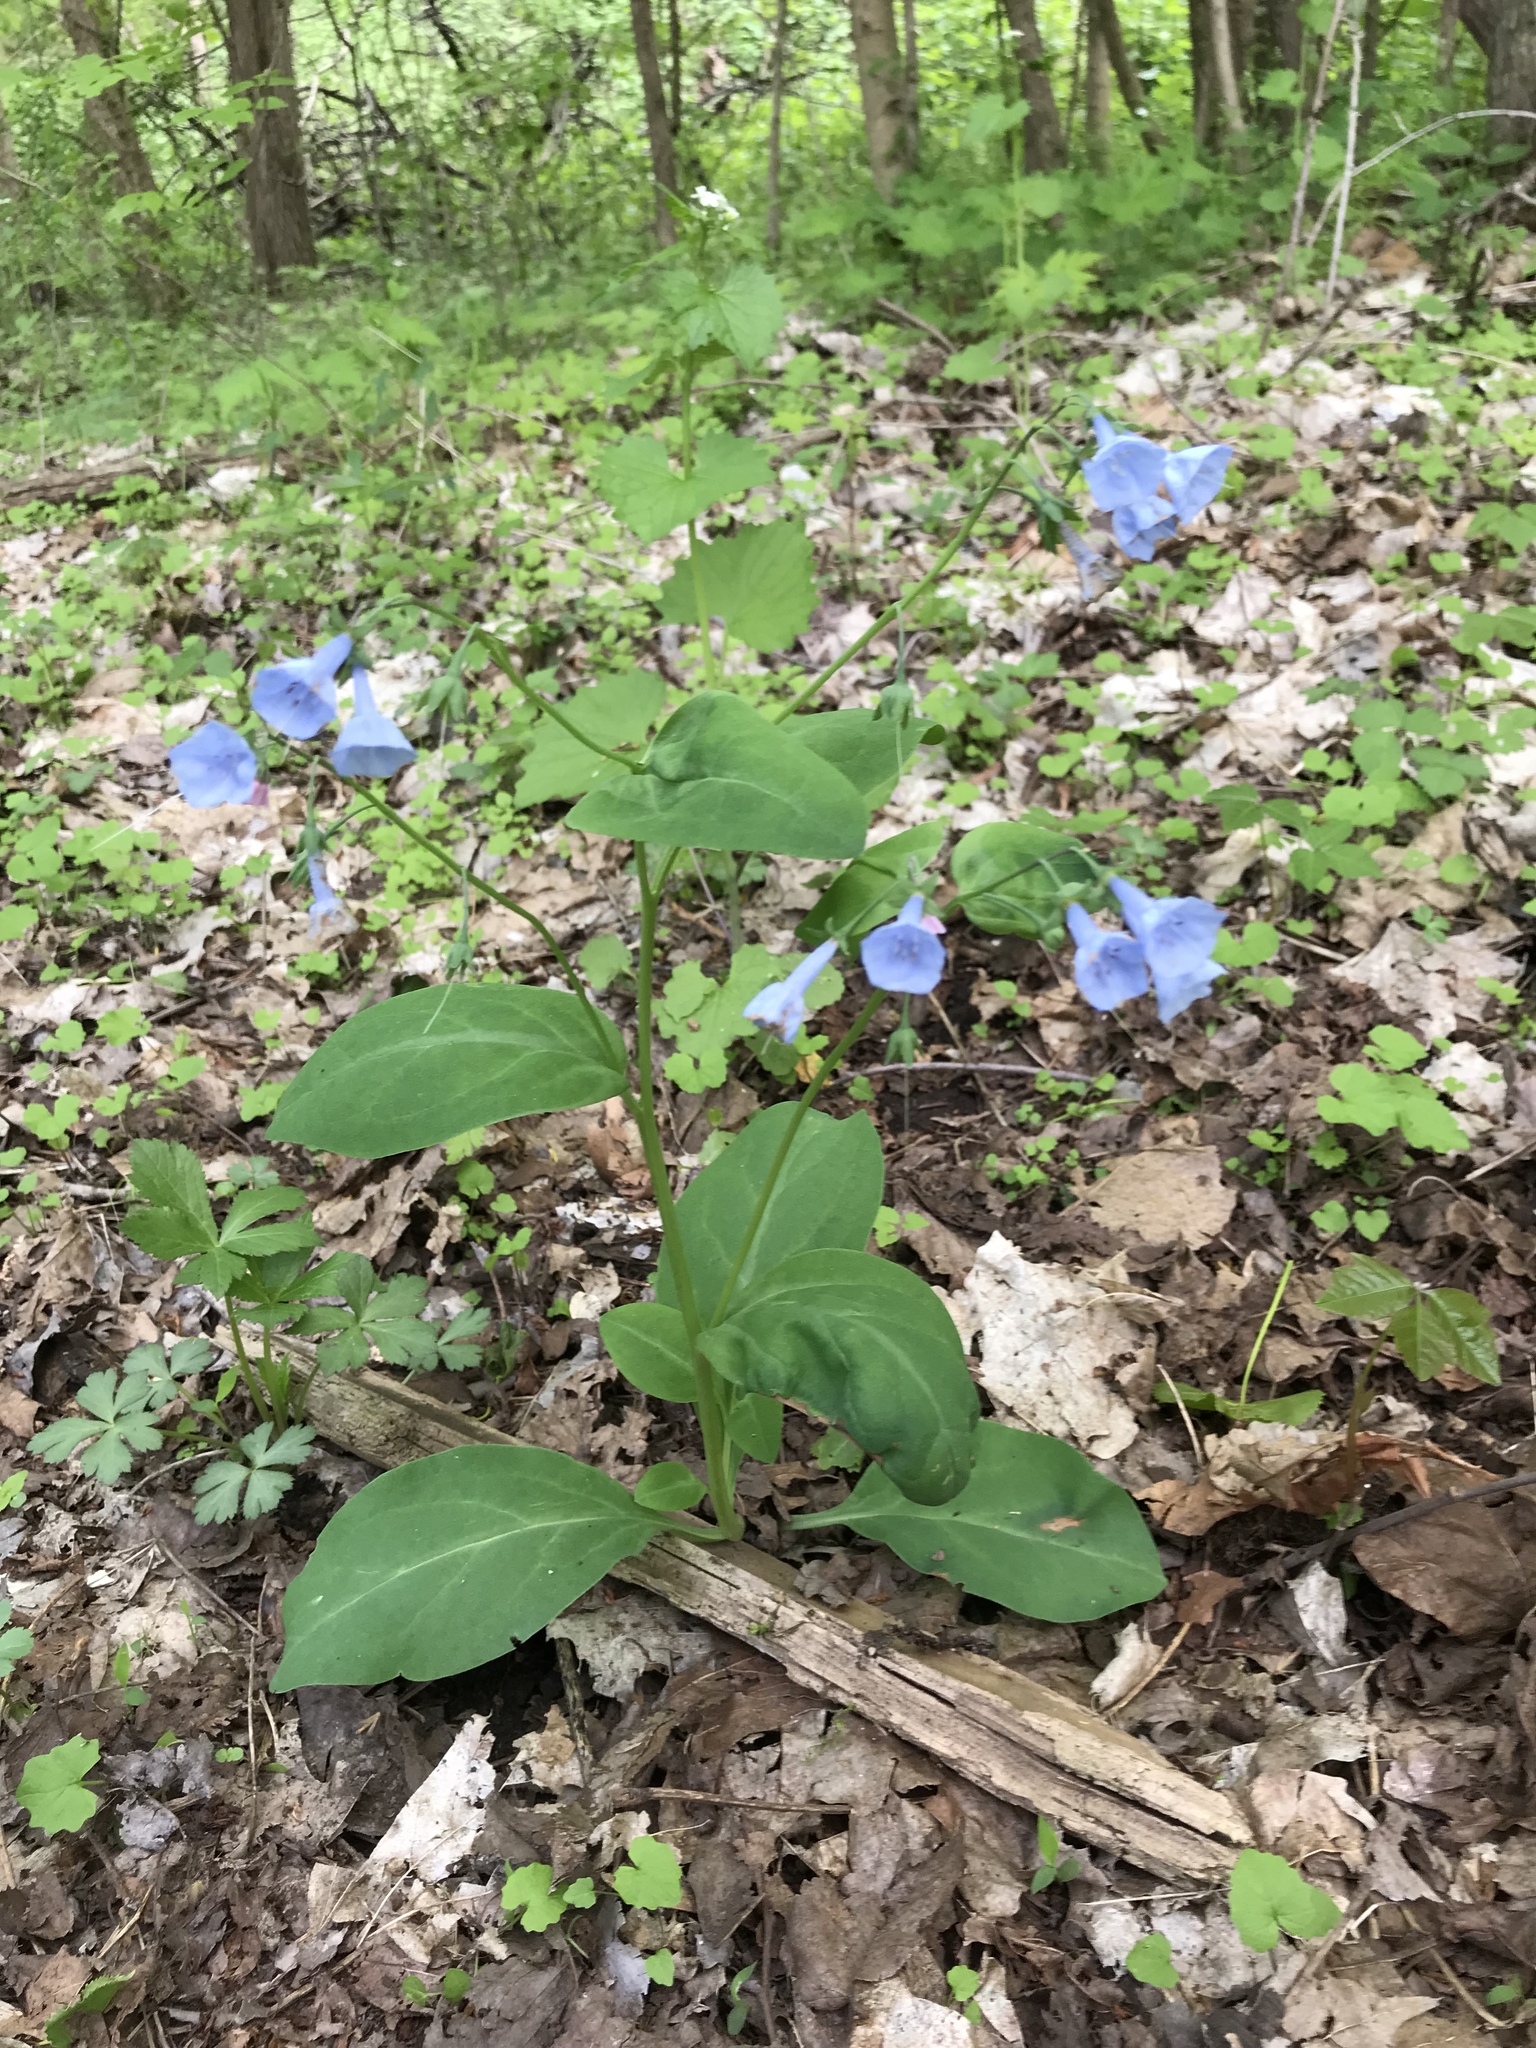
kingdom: Plantae
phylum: Tracheophyta
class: Magnoliopsida
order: Boraginales
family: Boraginaceae
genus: Mertensia
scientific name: Mertensia virginica
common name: Virginia bluebells
